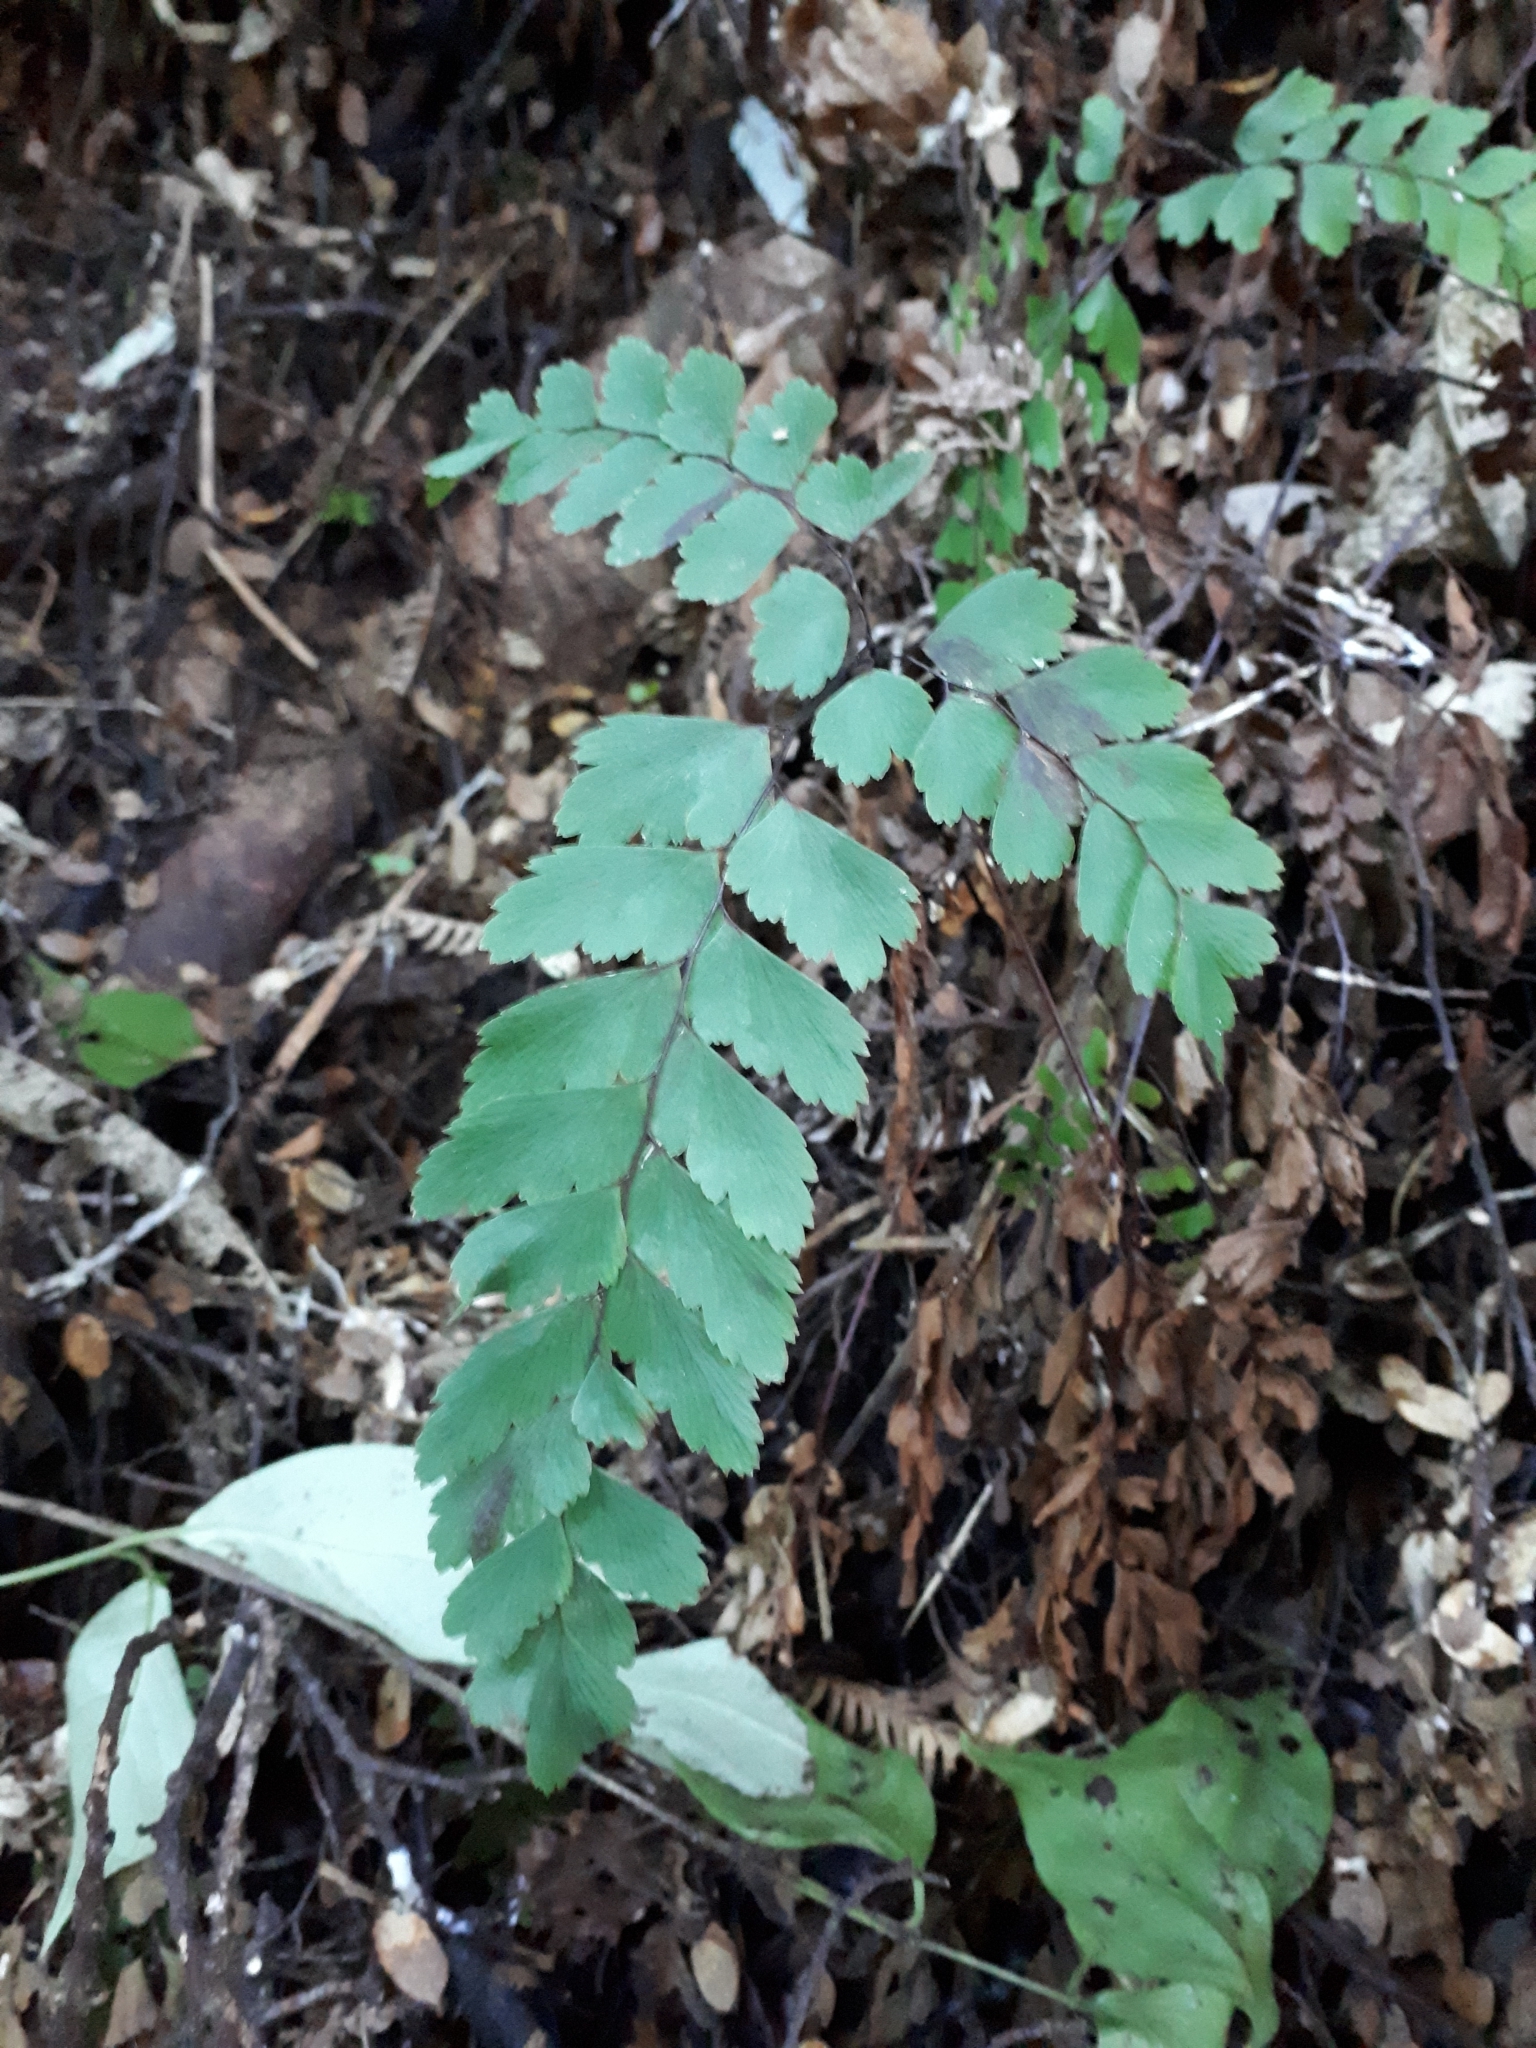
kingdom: Plantae
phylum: Tracheophyta
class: Polypodiopsida
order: Polypodiales
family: Pteridaceae
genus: Adiantum
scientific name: Adiantum cunninghamii
